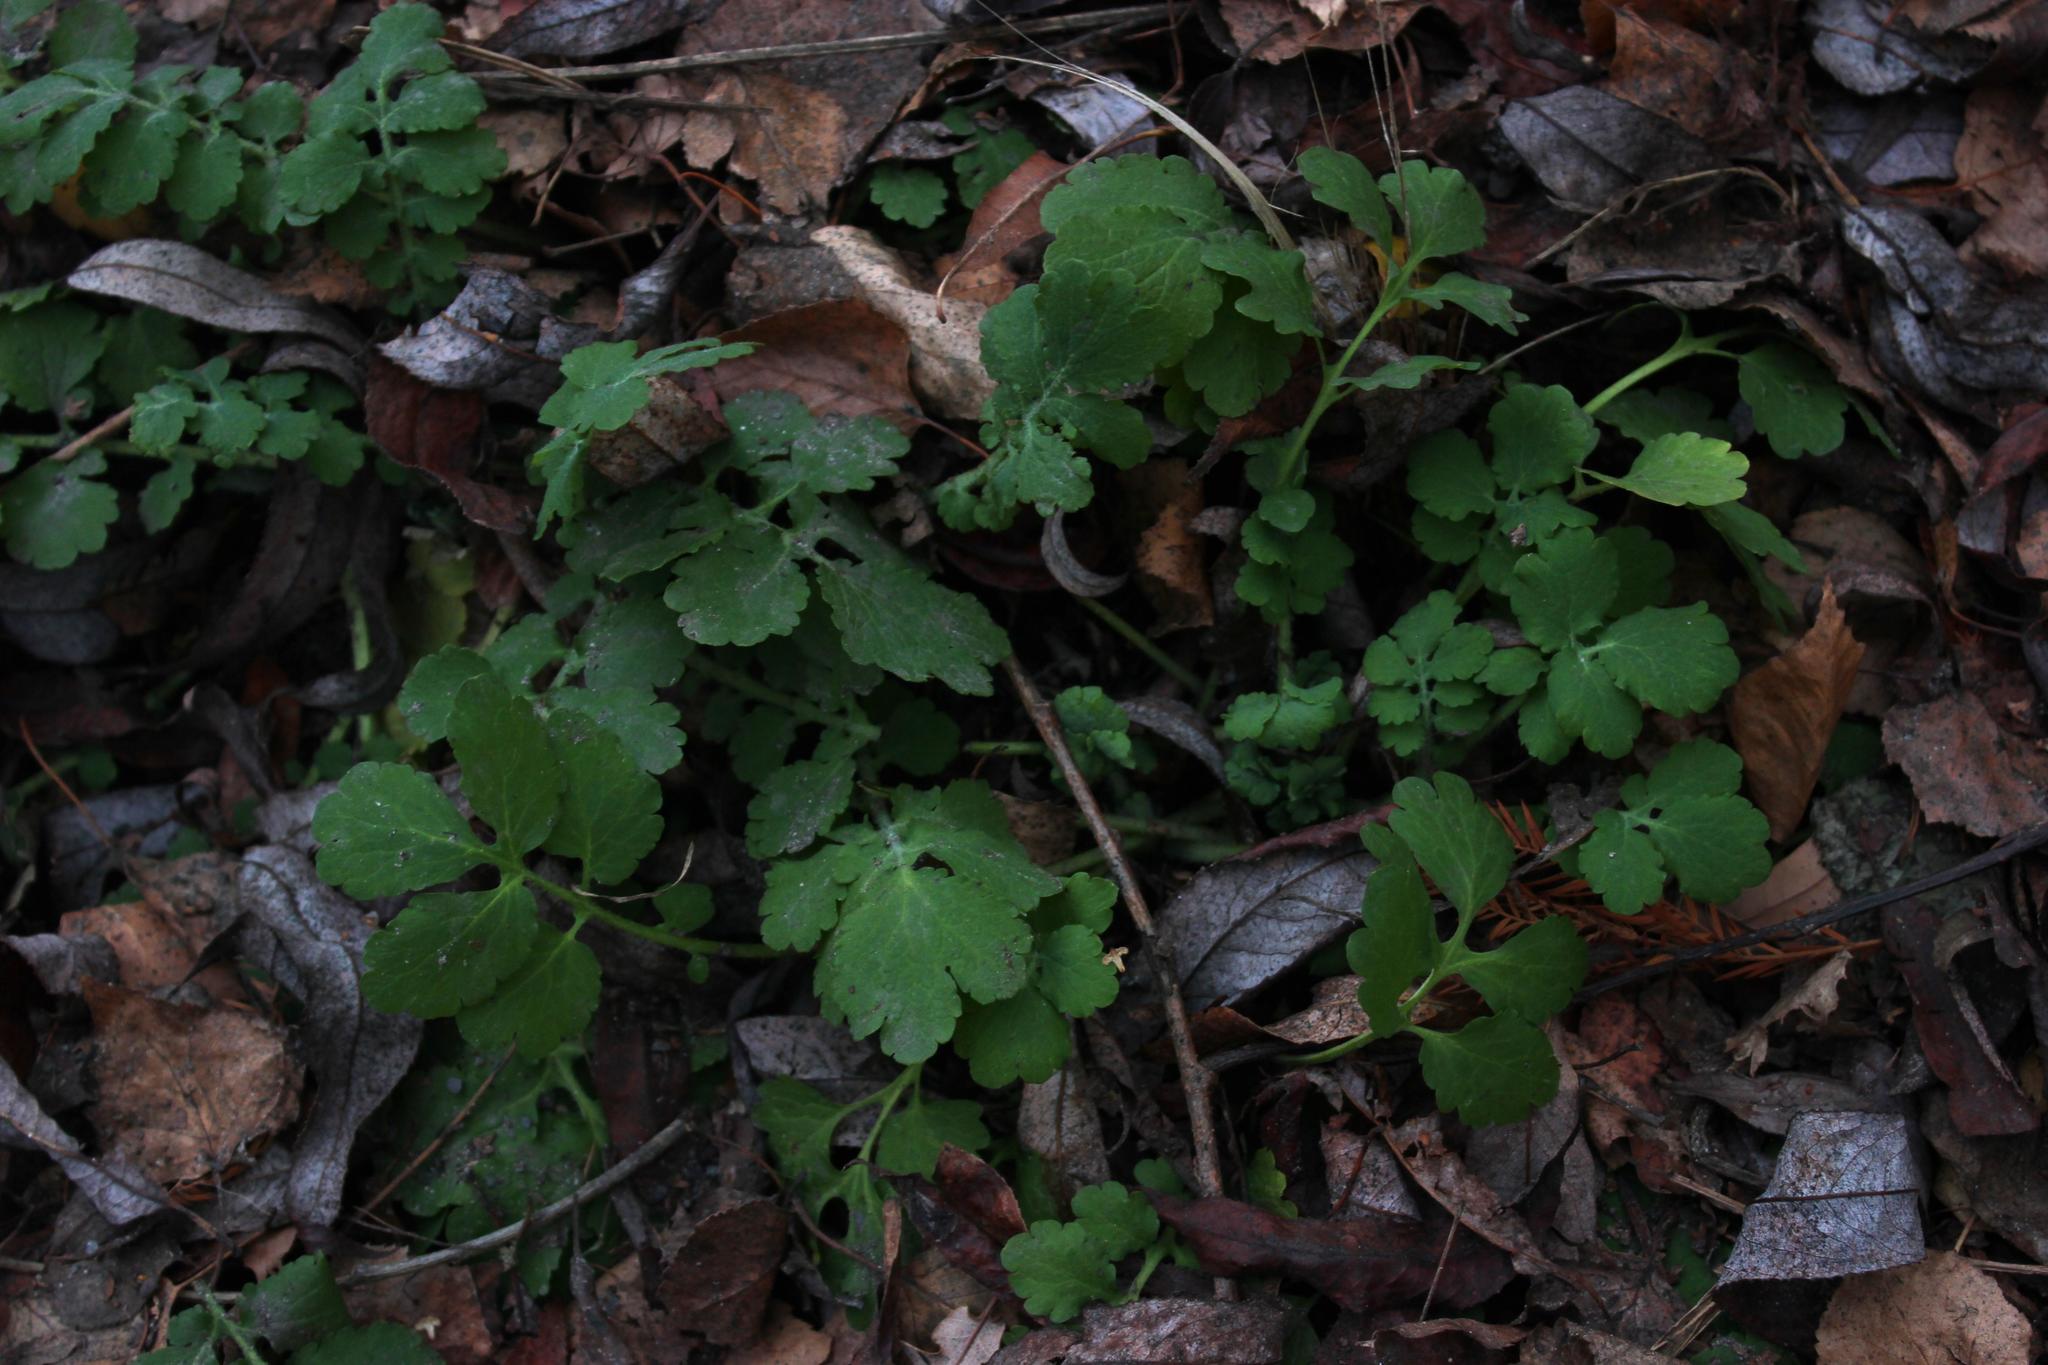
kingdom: Plantae
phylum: Tracheophyta
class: Magnoliopsida
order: Ranunculales
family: Papaveraceae
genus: Chelidonium
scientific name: Chelidonium majus
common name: Greater celandine
